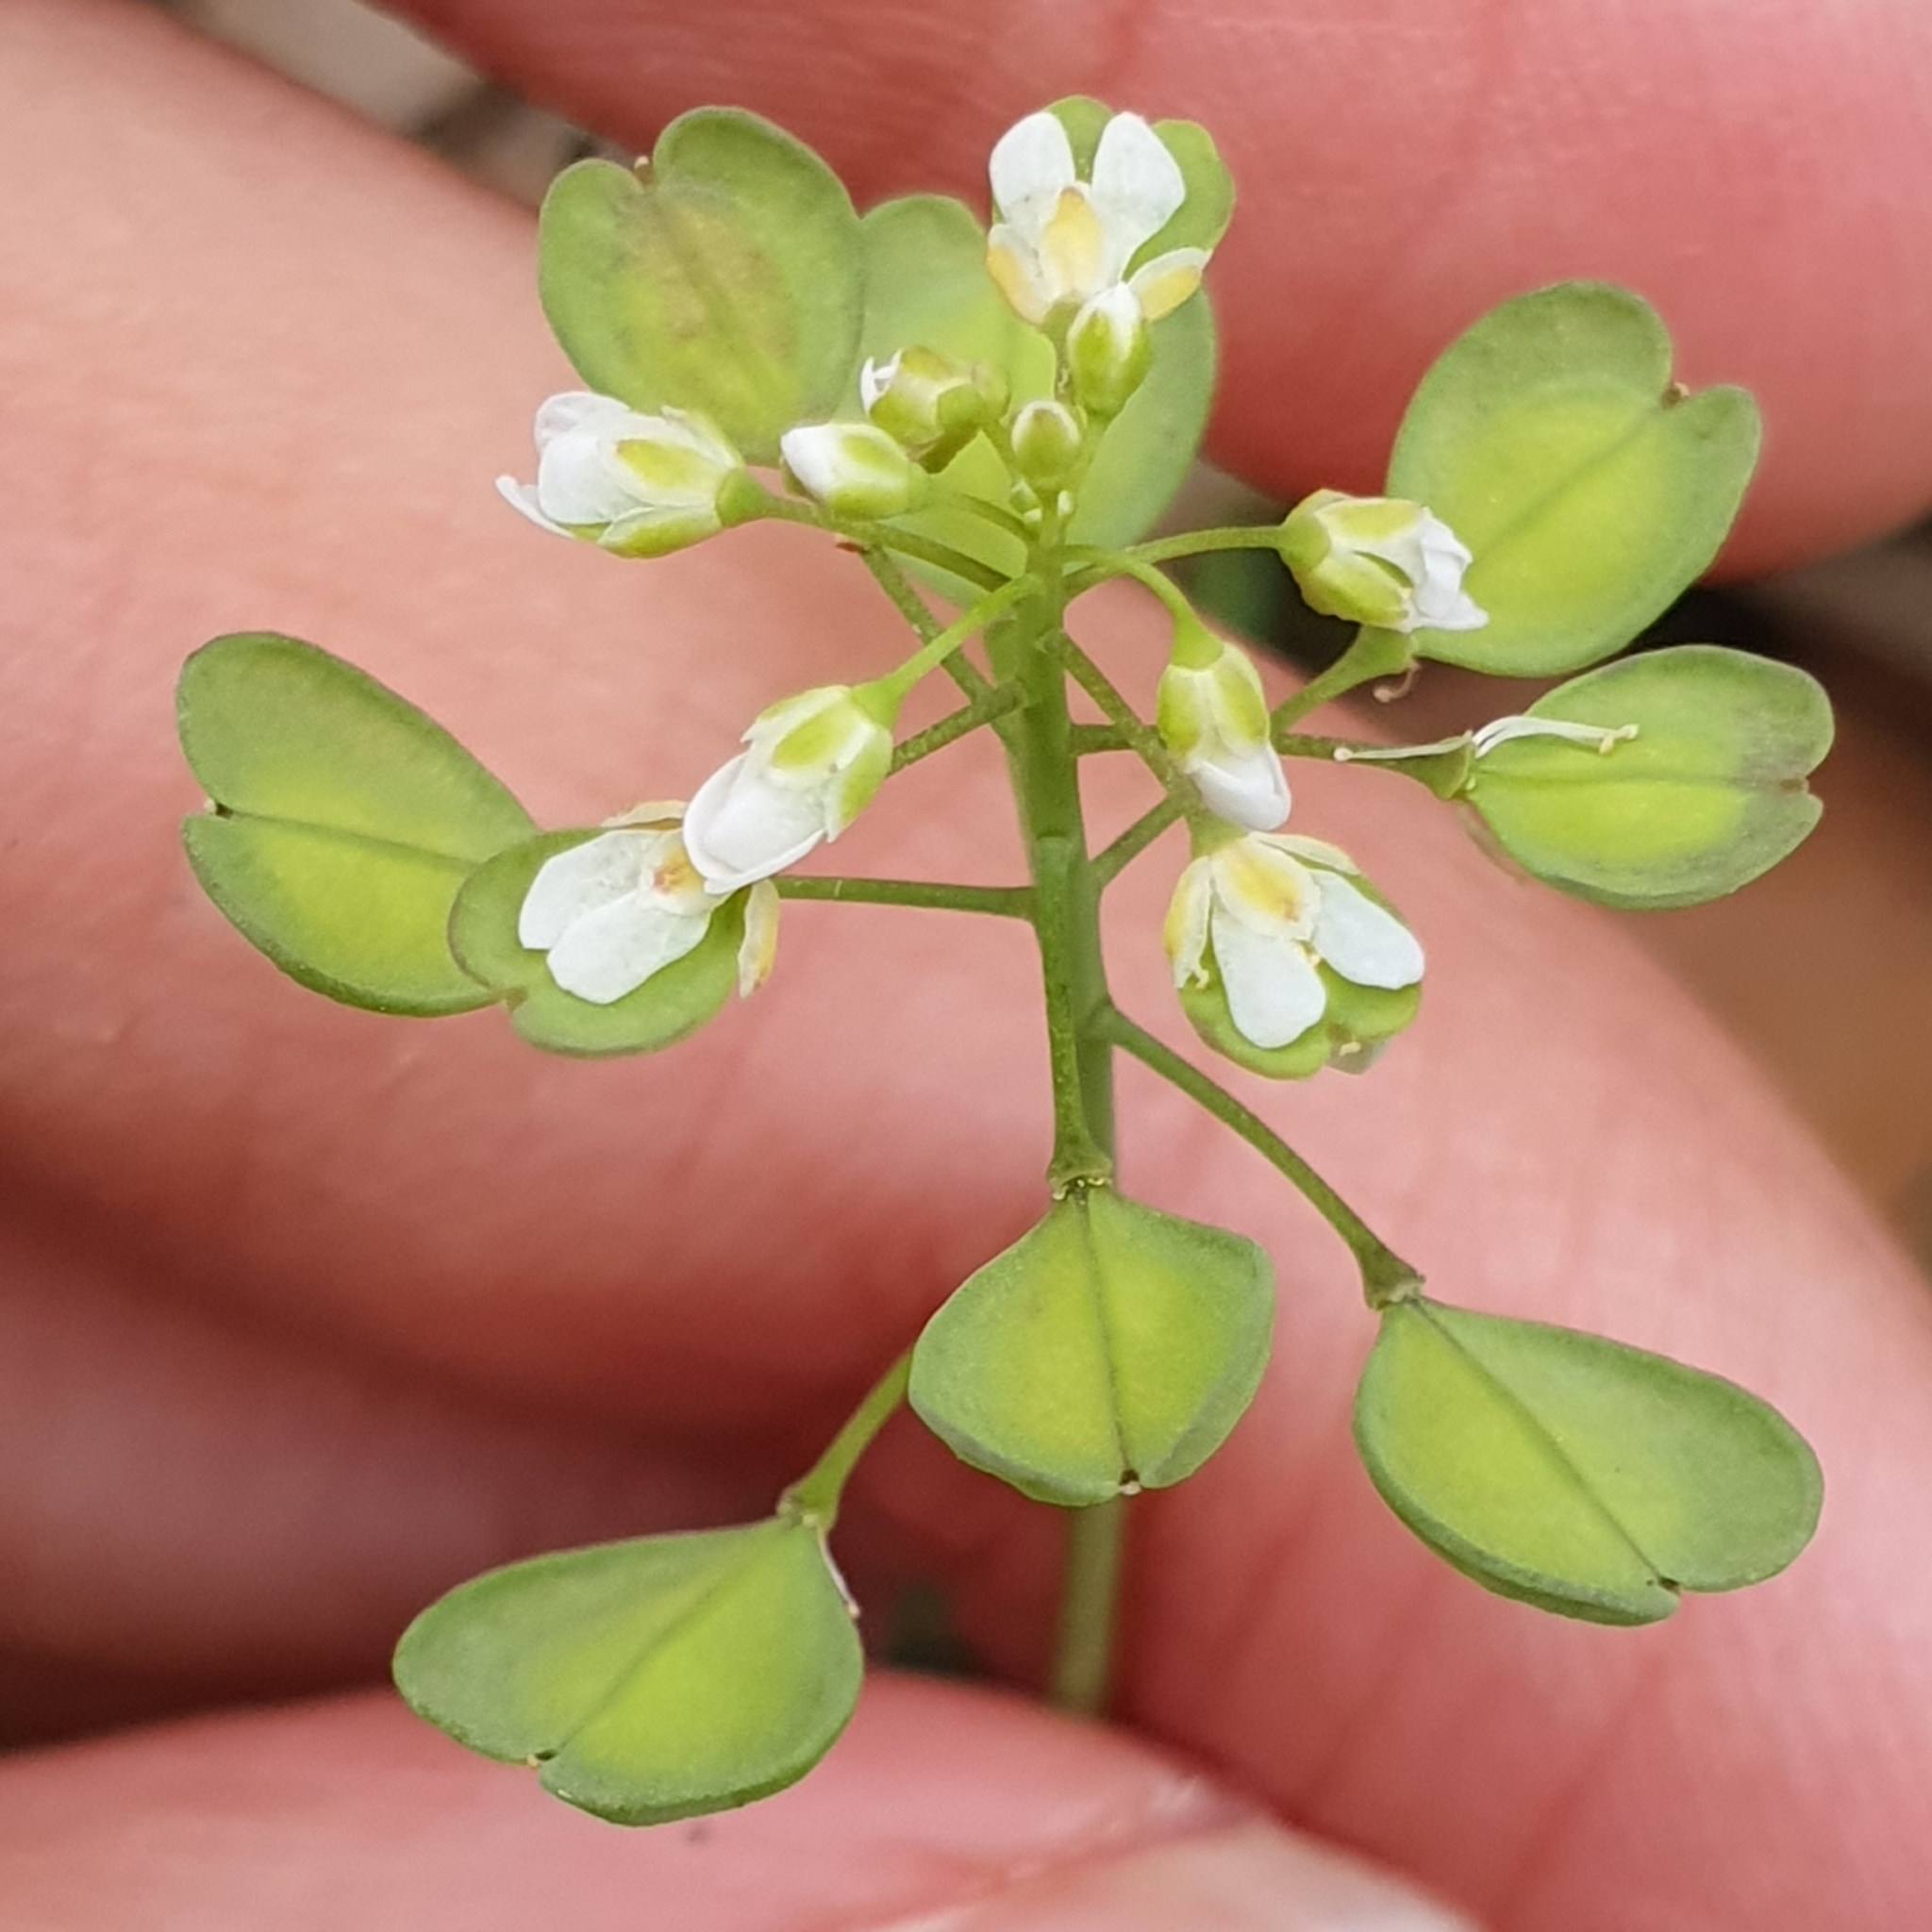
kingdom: Plantae
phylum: Tracheophyta
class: Magnoliopsida
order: Brassicales
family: Brassicaceae
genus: Noccaea
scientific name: Noccaea perfoliata
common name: Perfoliate pennycress
